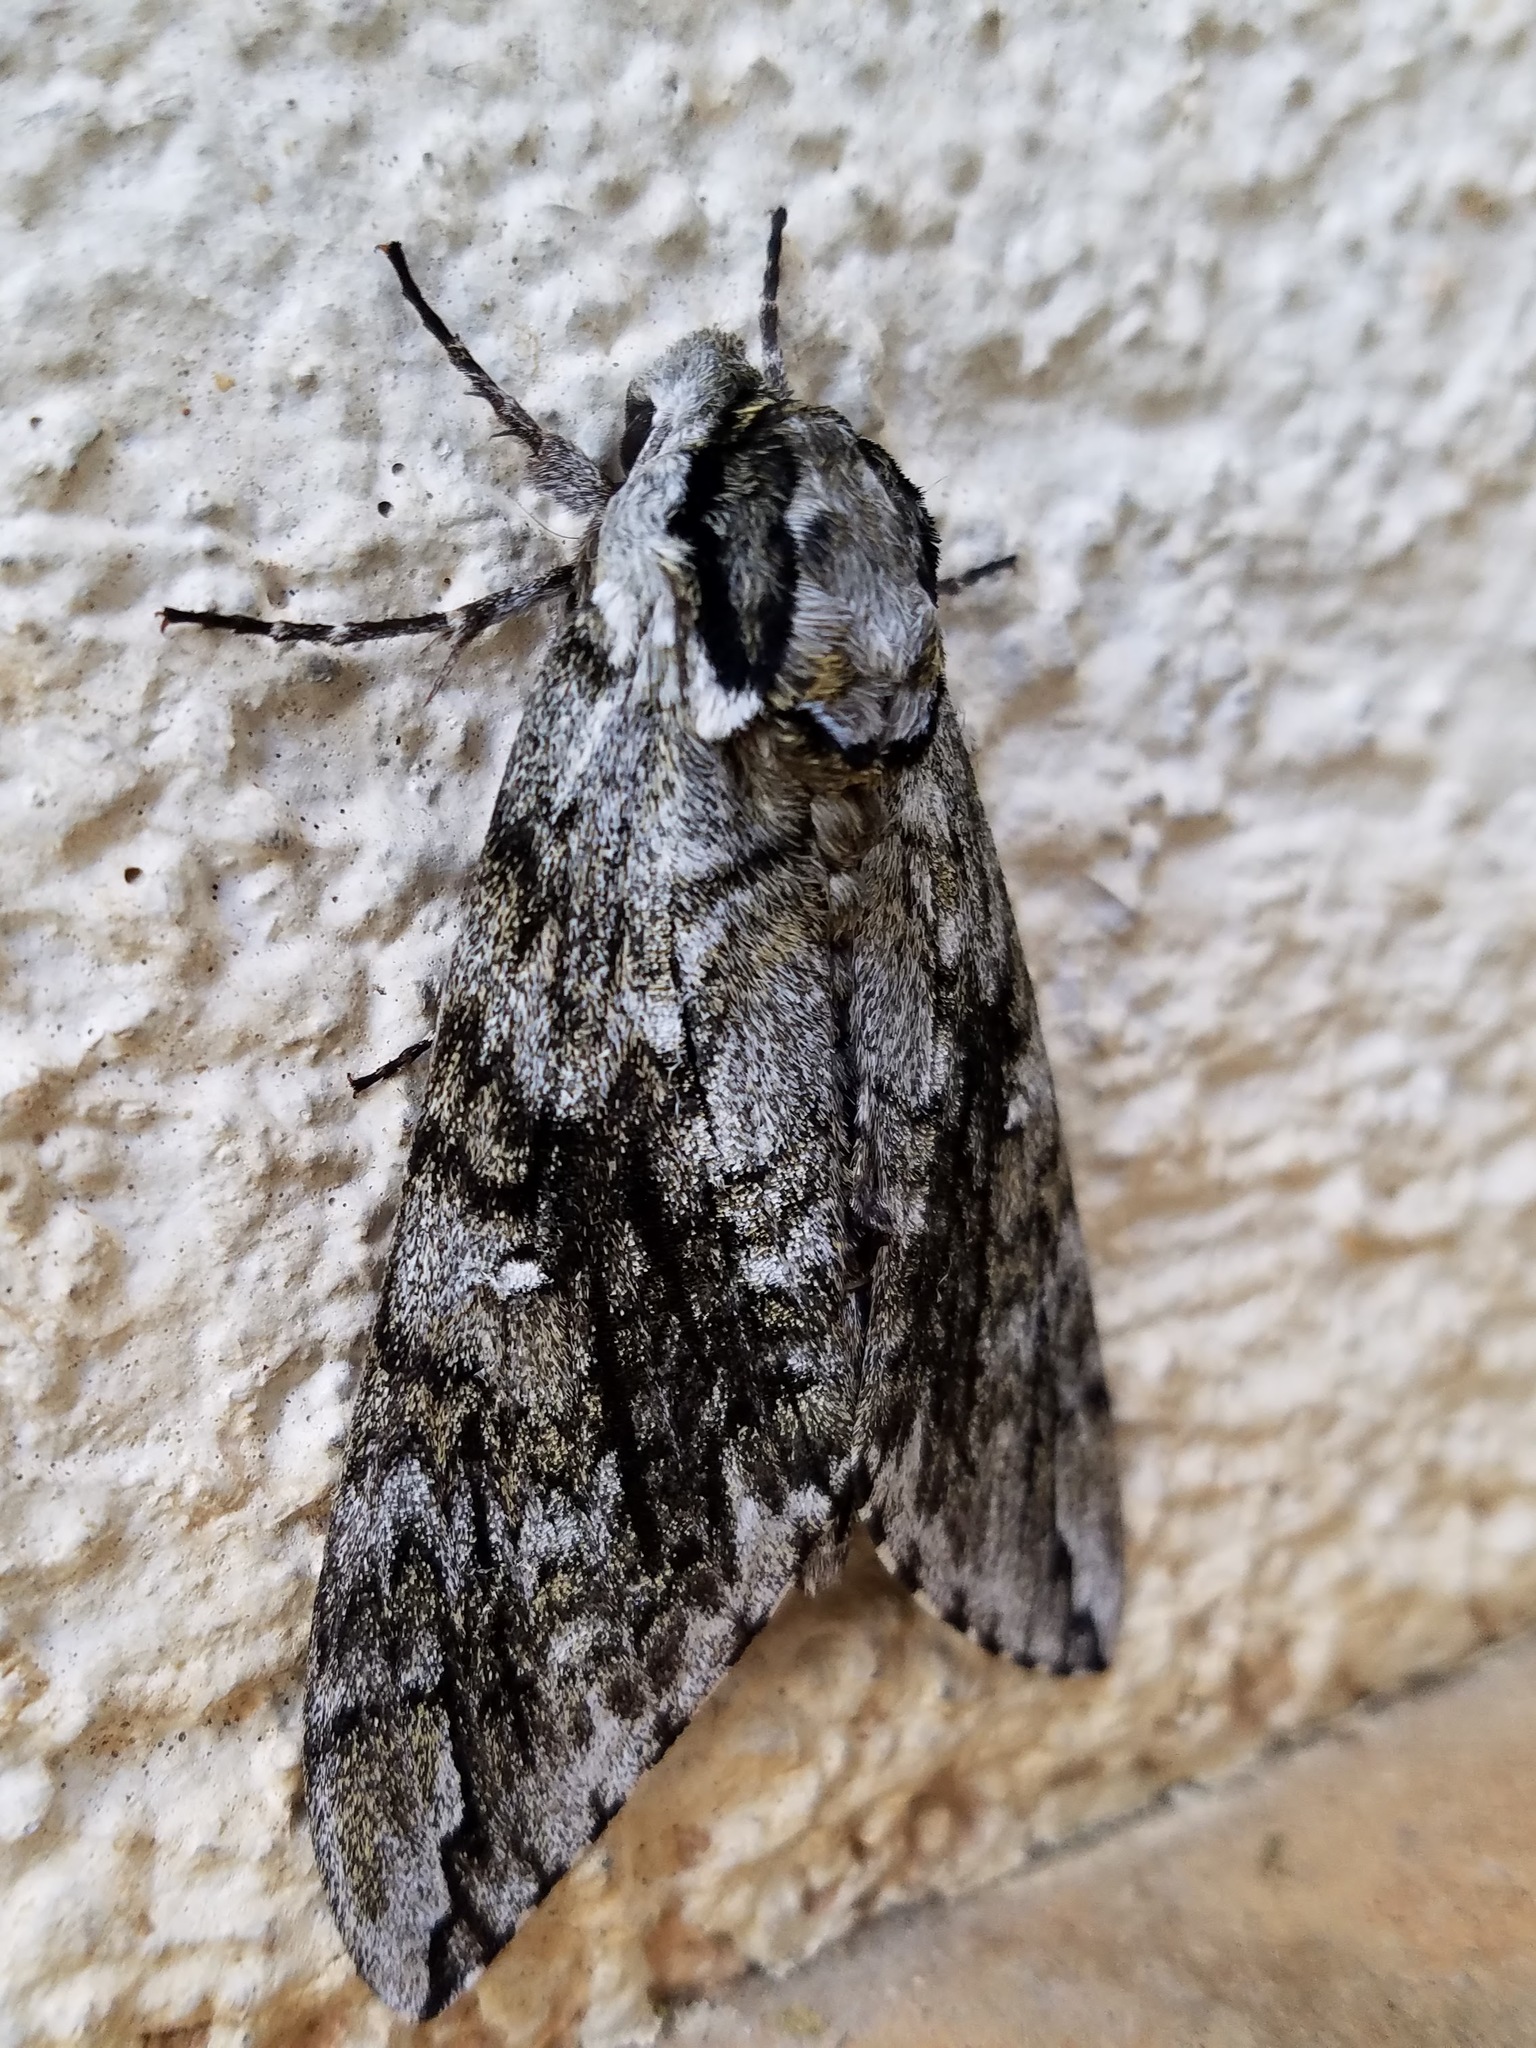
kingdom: Animalia
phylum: Arthropoda
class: Insecta
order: Lepidoptera
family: Sphingidae
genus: Ceratomia
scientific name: Ceratomia undulosa
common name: Waved sphinx
